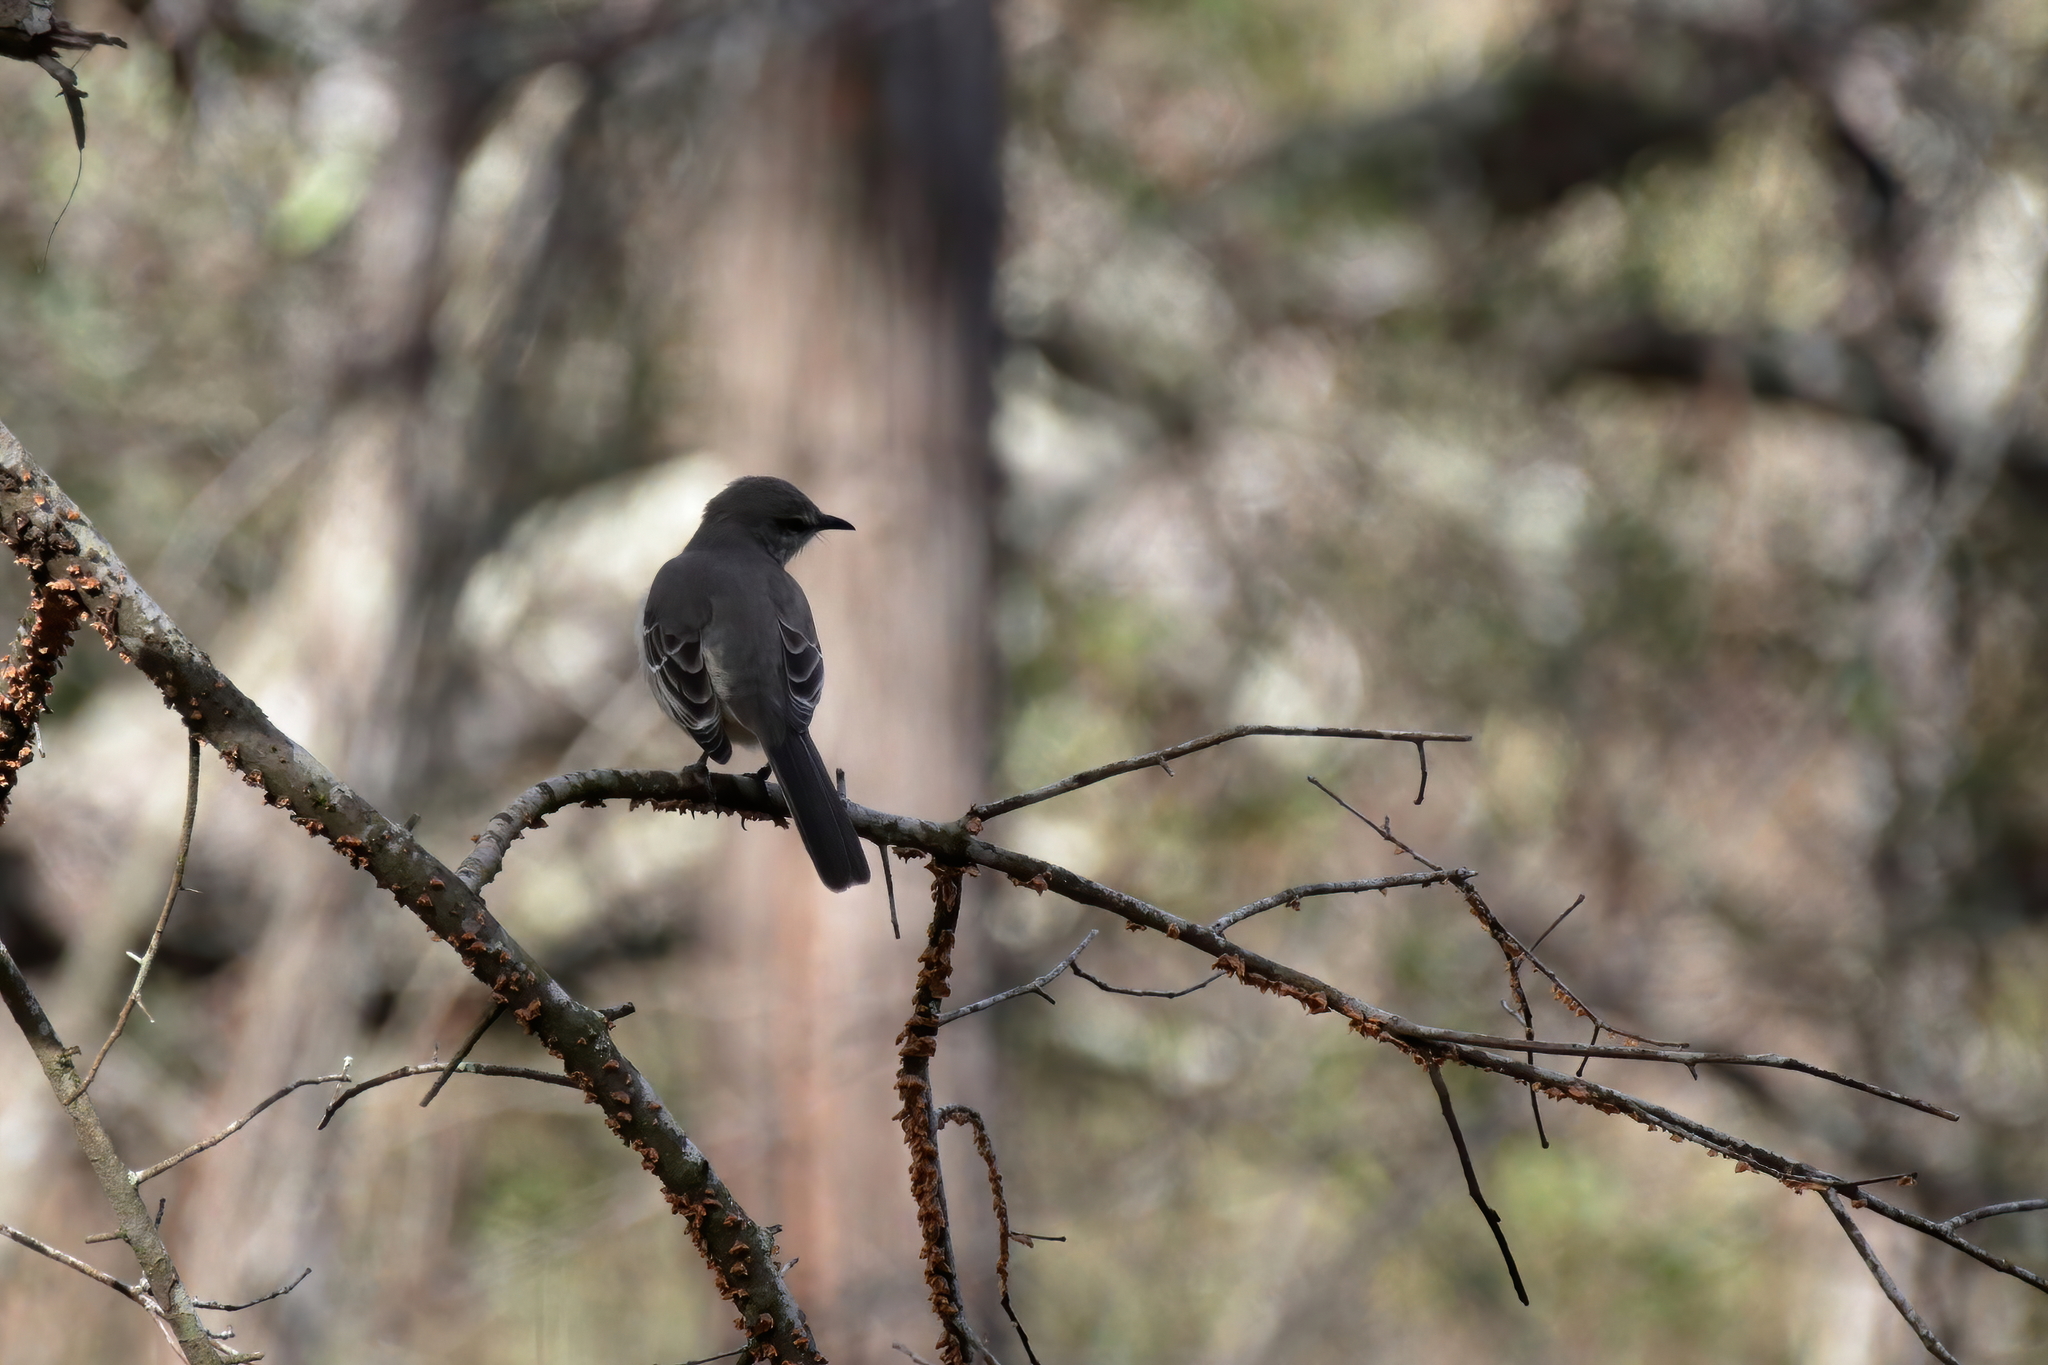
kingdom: Animalia
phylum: Chordata
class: Aves
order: Passeriformes
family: Mimidae
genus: Mimus
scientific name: Mimus polyglottos
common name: Northern mockingbird
